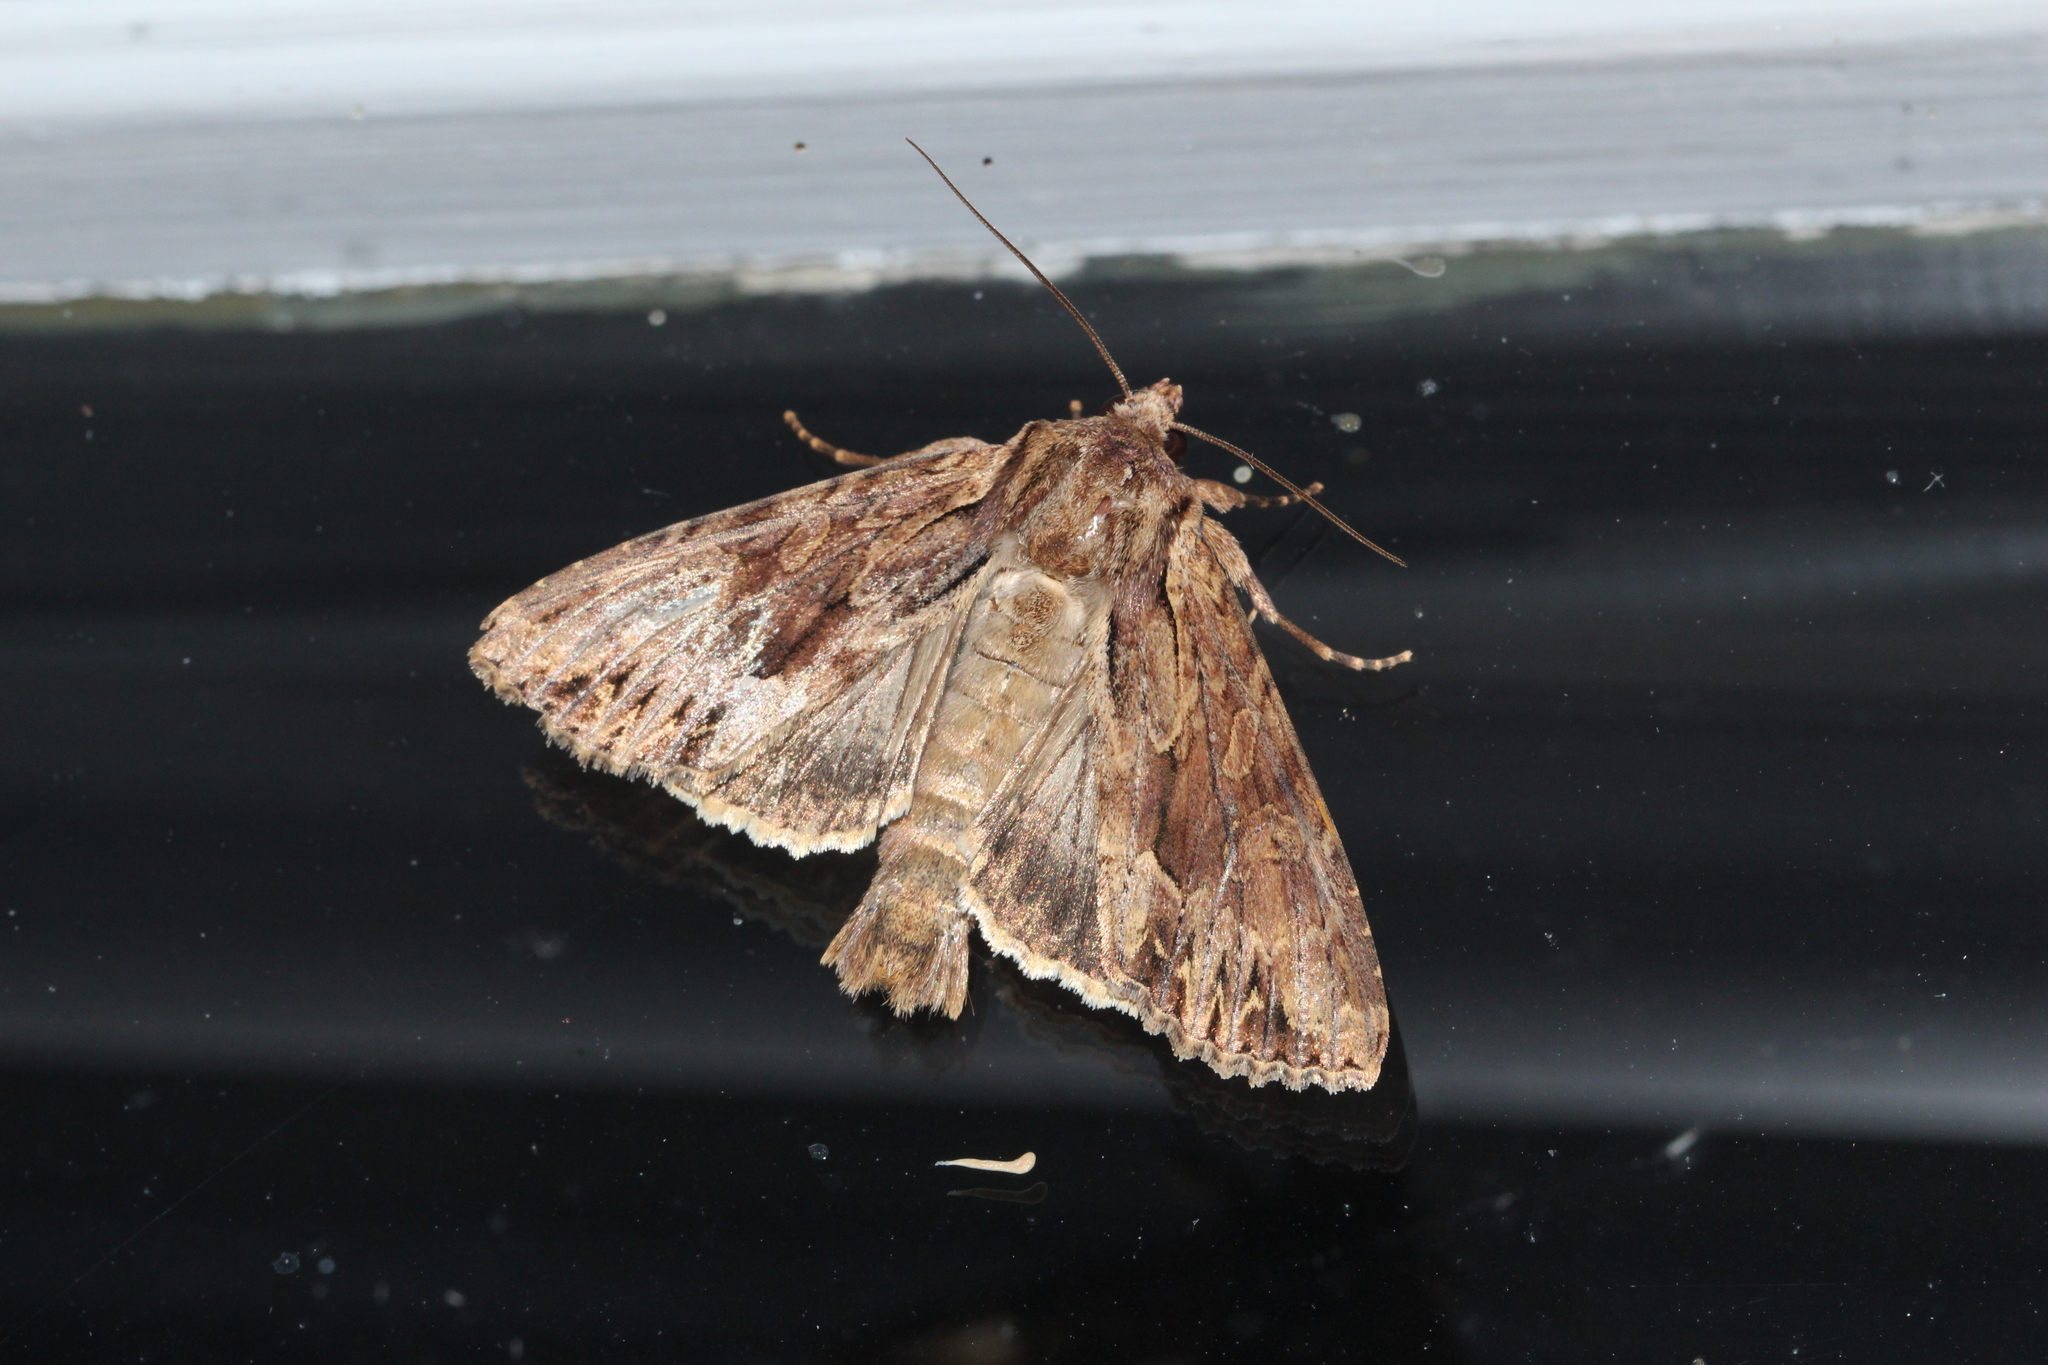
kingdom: Animalia
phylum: Arthropoda
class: Insecta
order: Lepidoptera
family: Noctuidae
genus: Apamea
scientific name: Apamea monoglypha
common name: Dark arches
